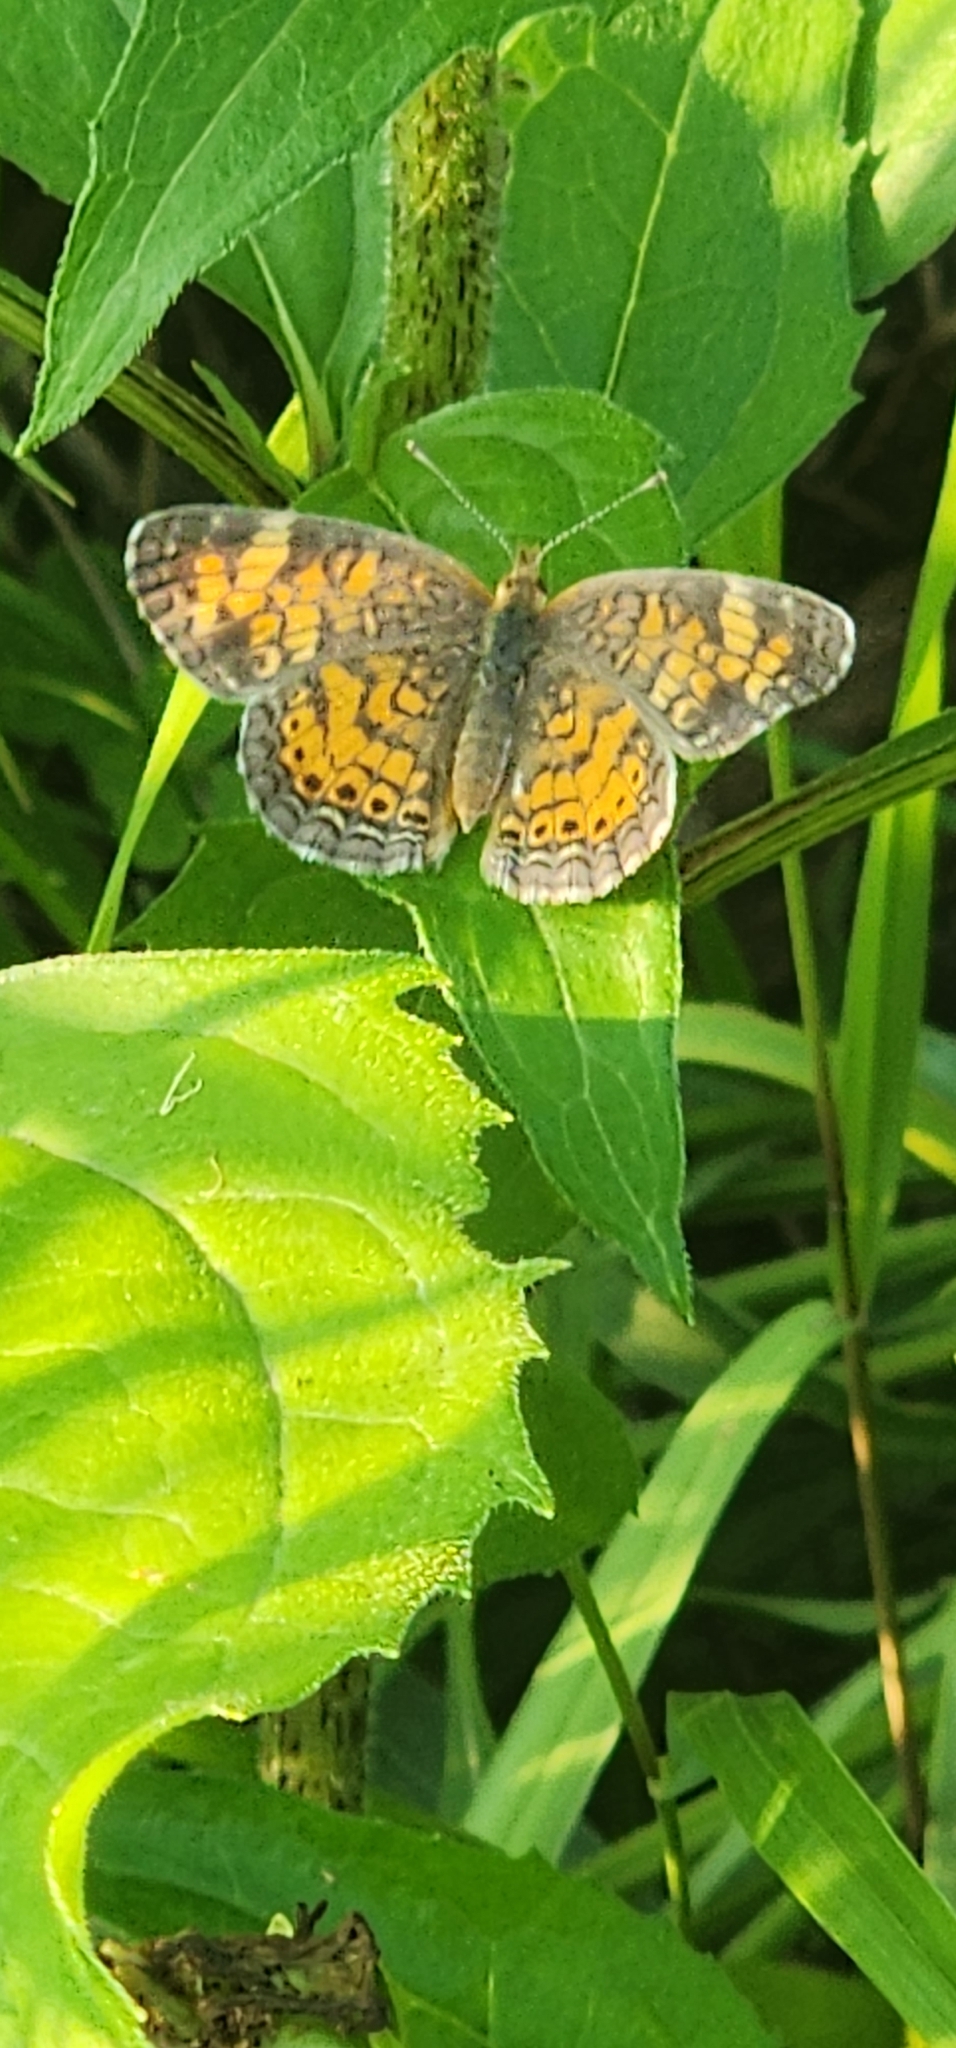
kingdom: Animalia
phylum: Arthropoda
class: Insecta
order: Lepidoptera
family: Nymphalidae
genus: Phyciodes
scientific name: Phyciodes tharos
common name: Pearl crescent
